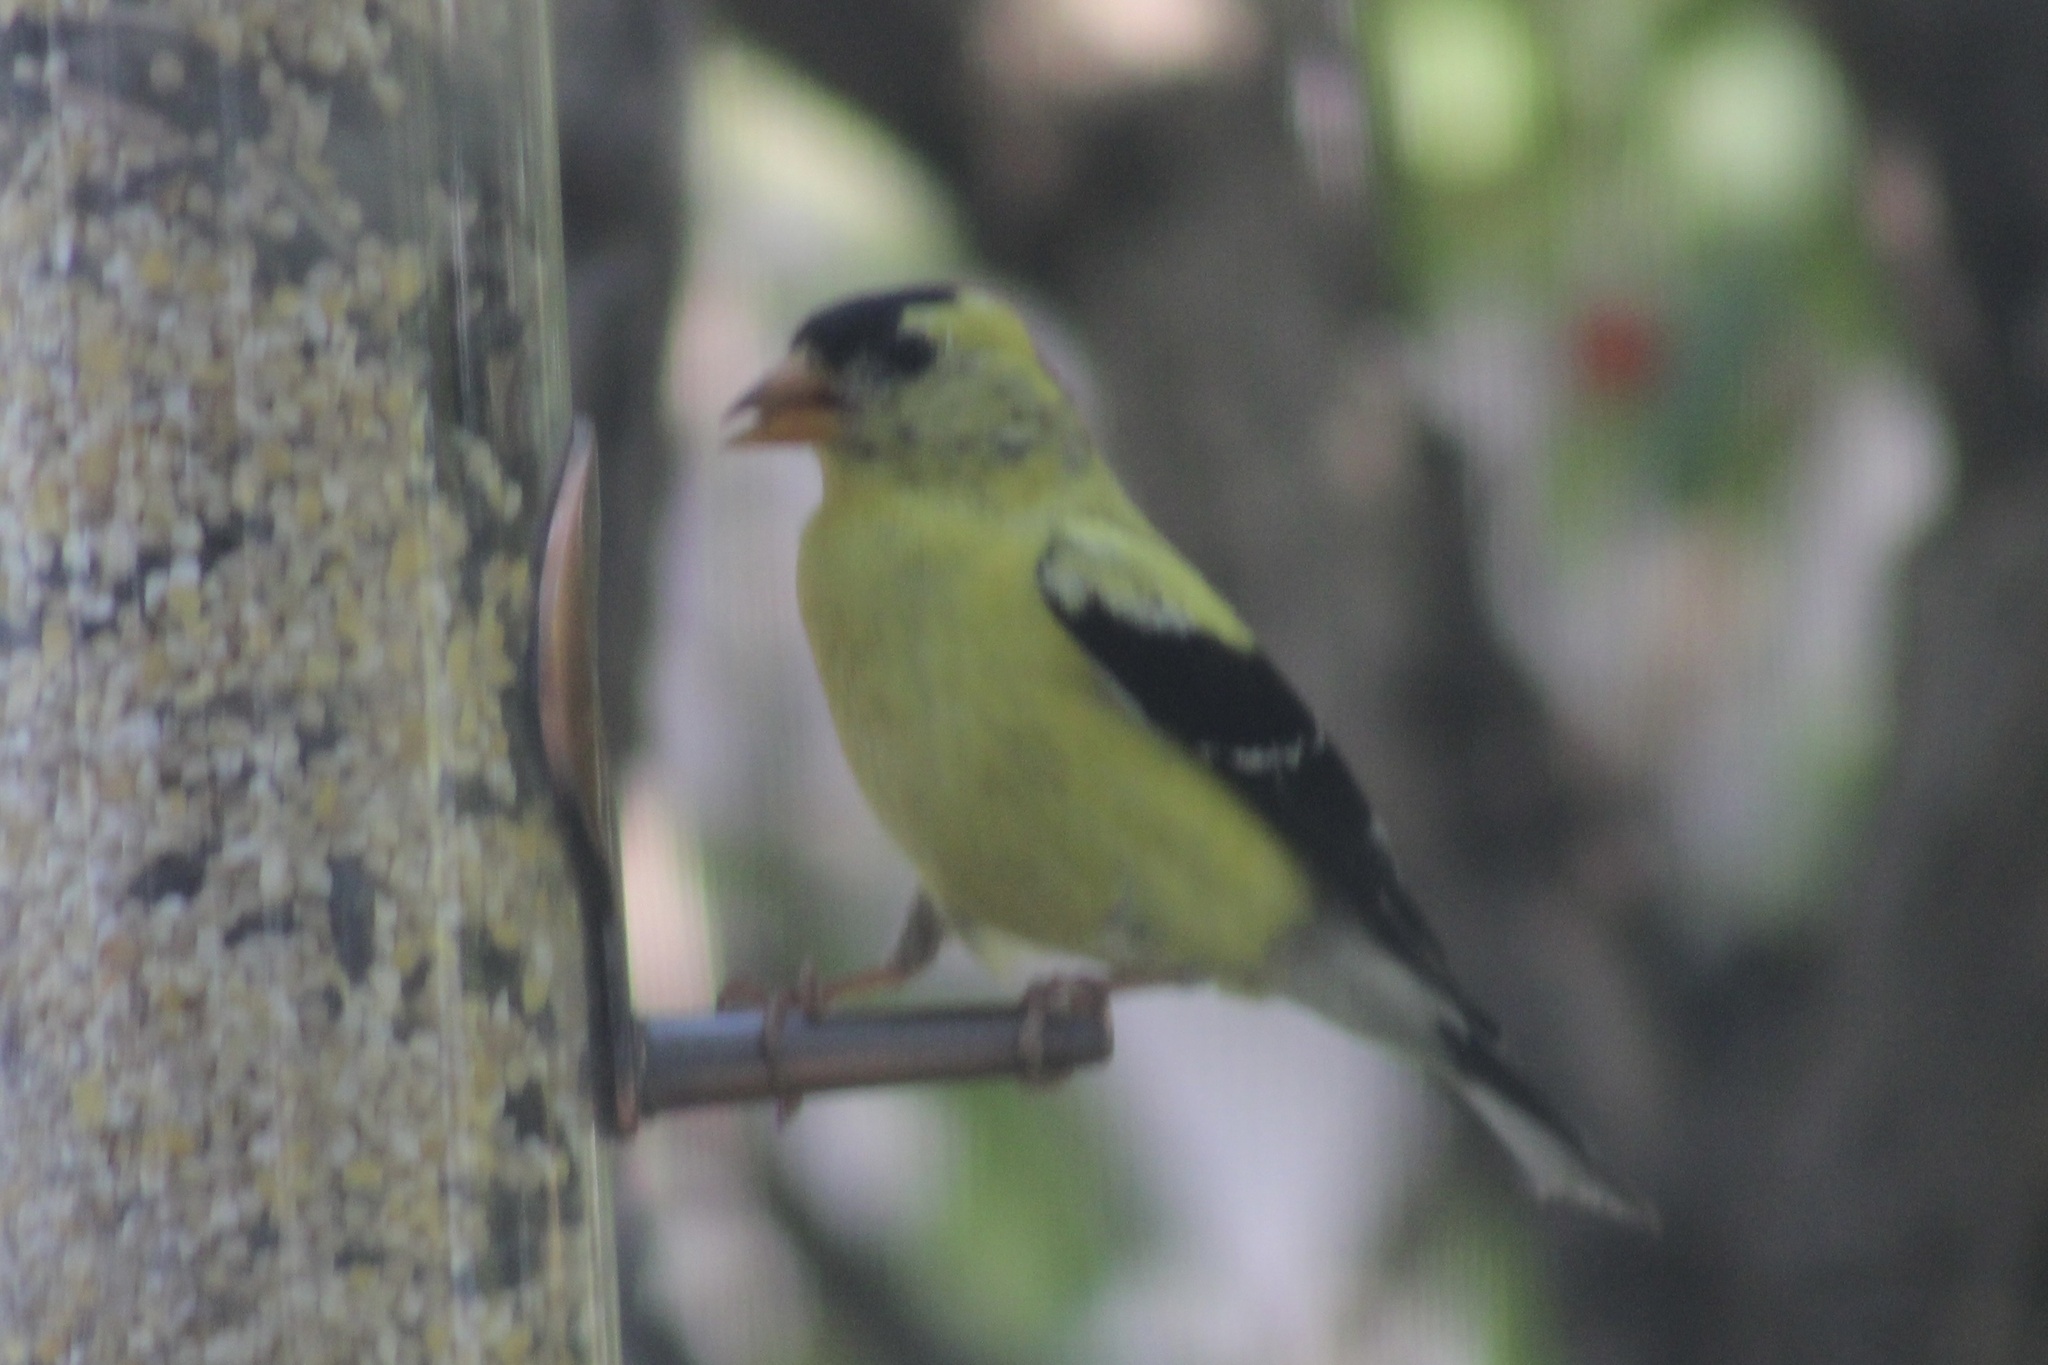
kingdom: Animalia
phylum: Chordata
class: Aves
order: Passeriformes
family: Fringillidae
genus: Spinus
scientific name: Spinus tristis
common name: American goldfinch
